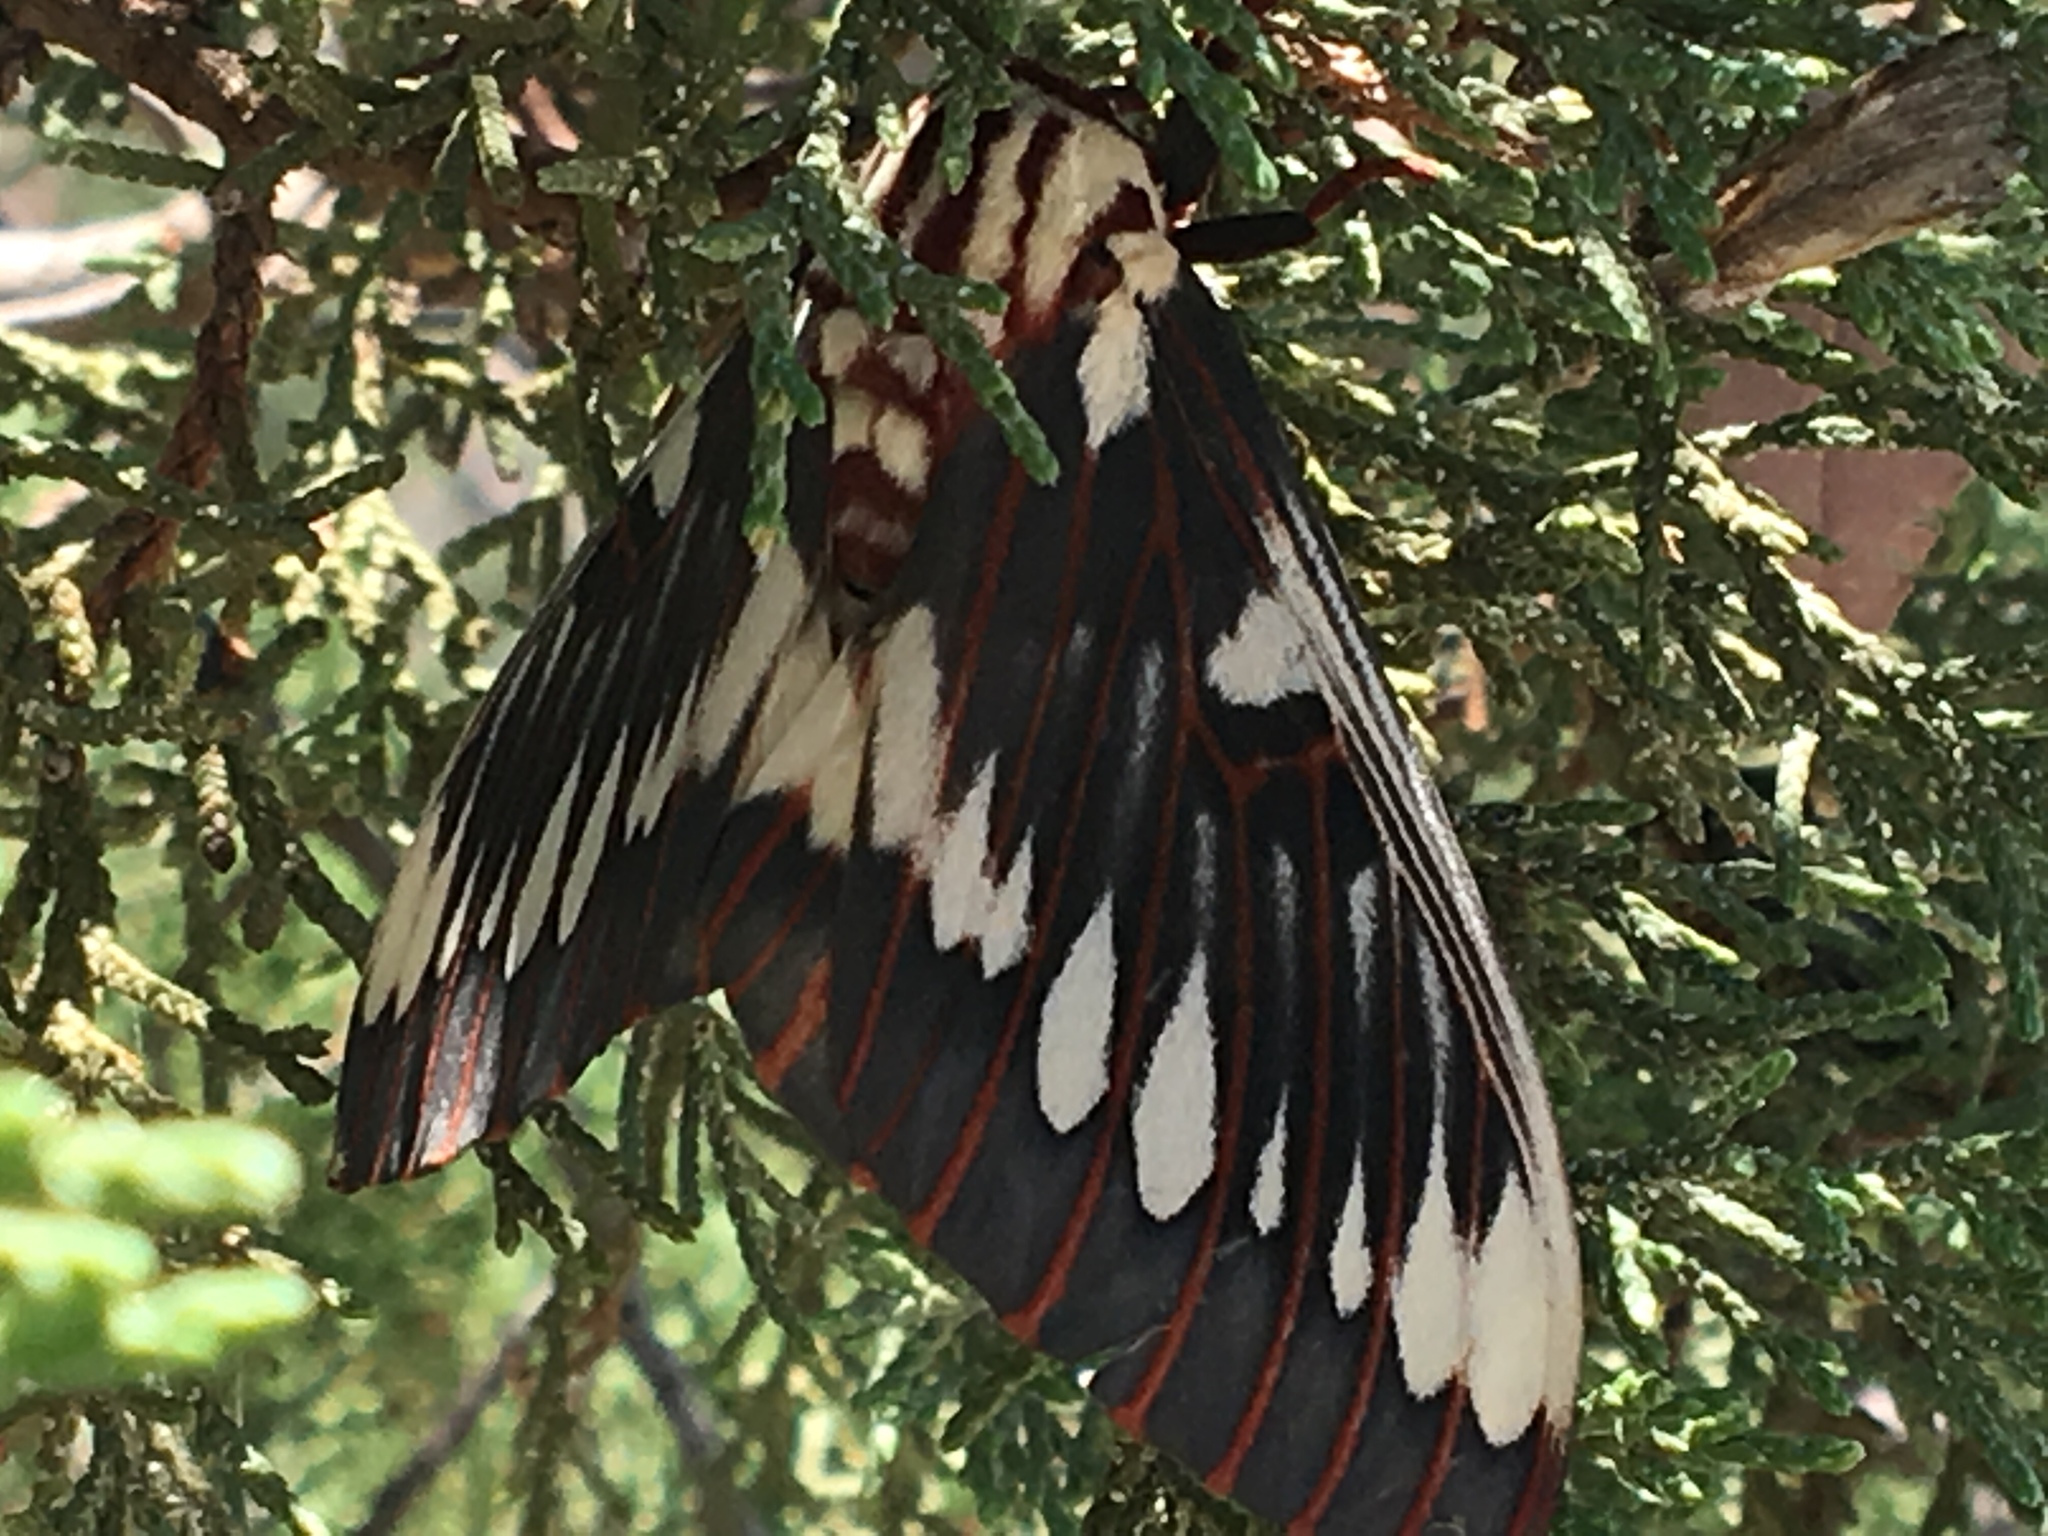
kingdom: Animalia
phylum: Arthropoda
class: Insecta
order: Lepidoptera
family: Saturniidae
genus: Citheronia
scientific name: Citheronia splendens
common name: Splendid royal moth
